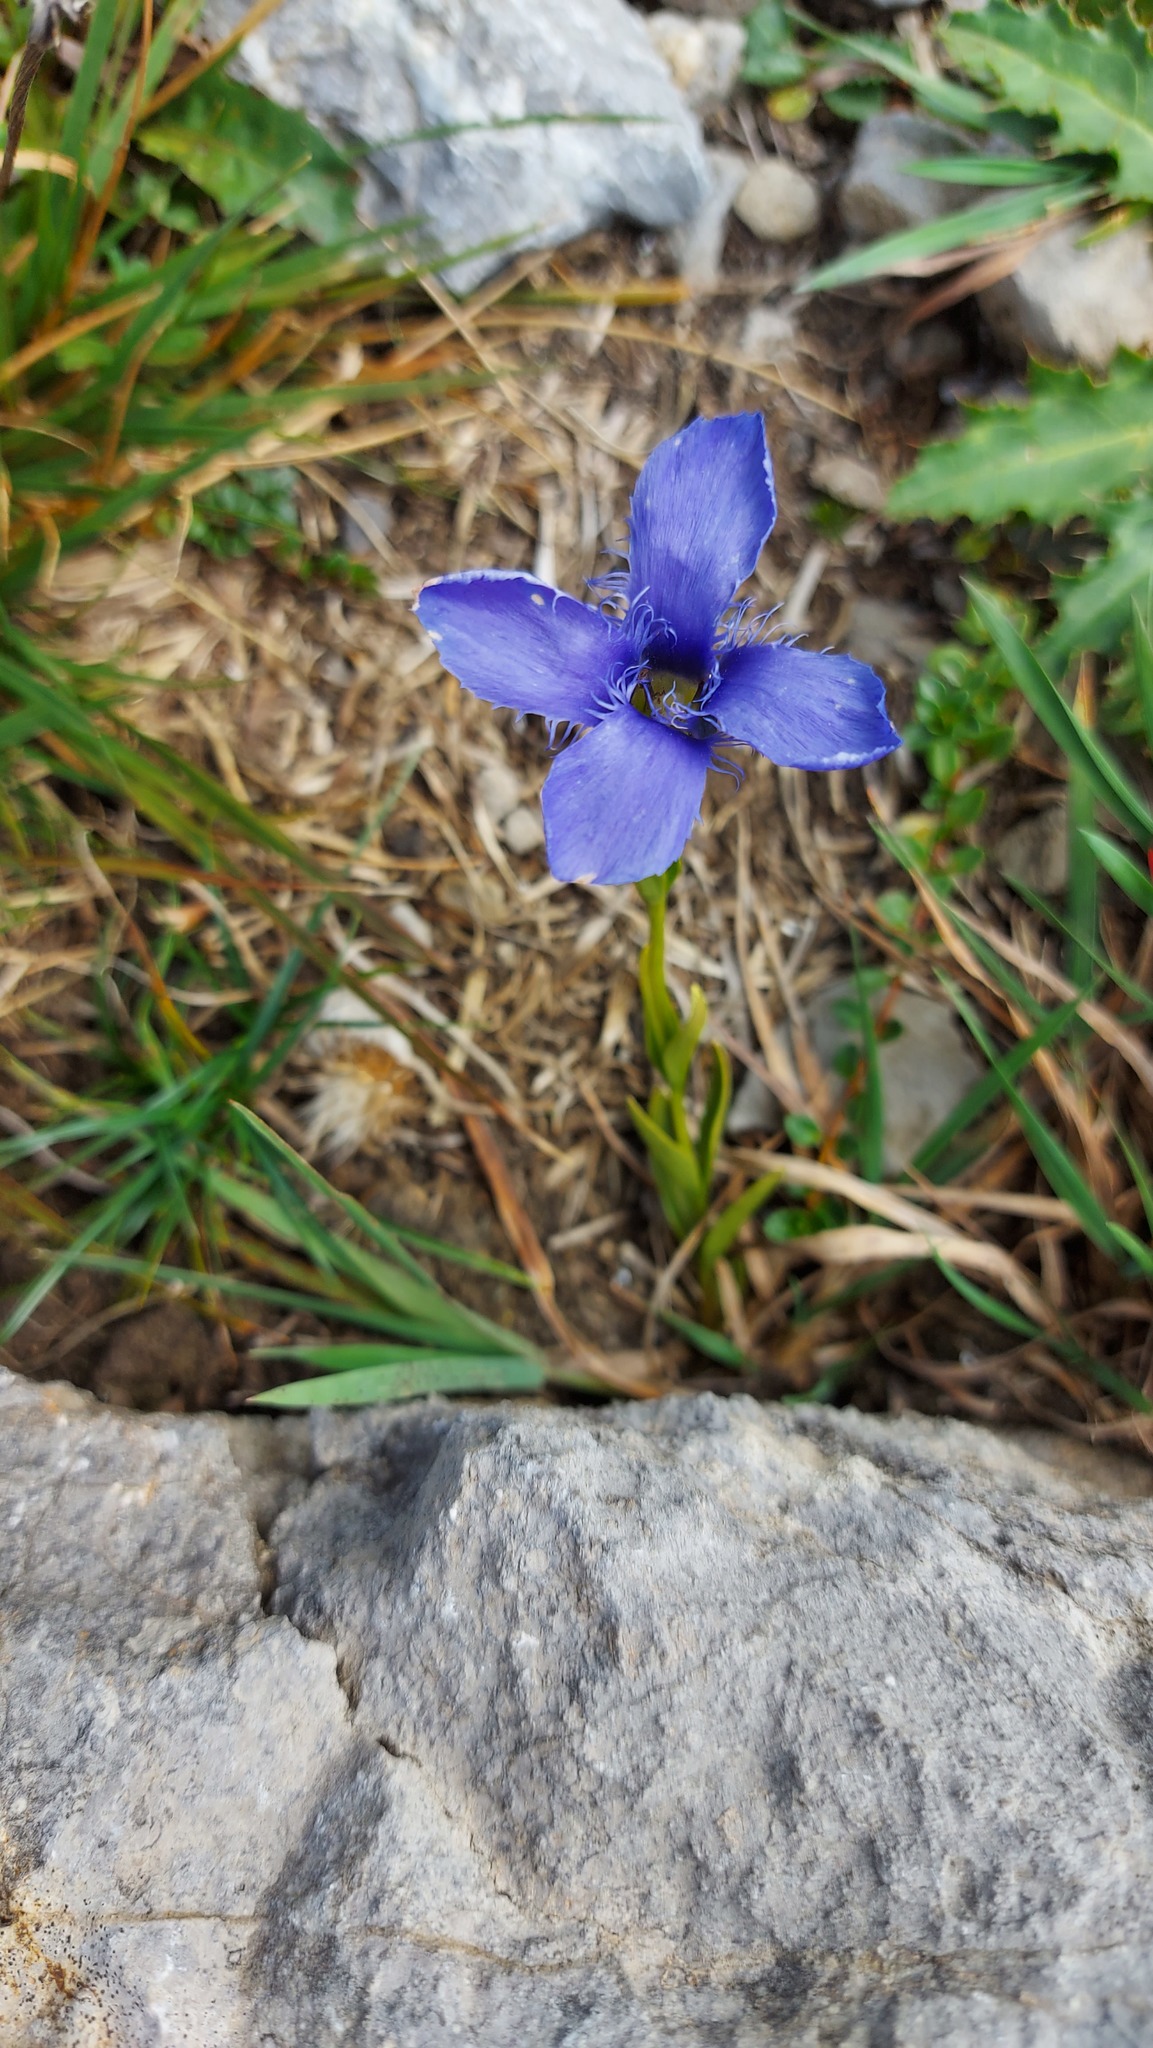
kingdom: Plantae
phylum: Tracheophyta
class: Magnoliopsida
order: Gentianales
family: Gentianaceae
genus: Gentianopsis
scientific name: Gentianopsis ciliata
